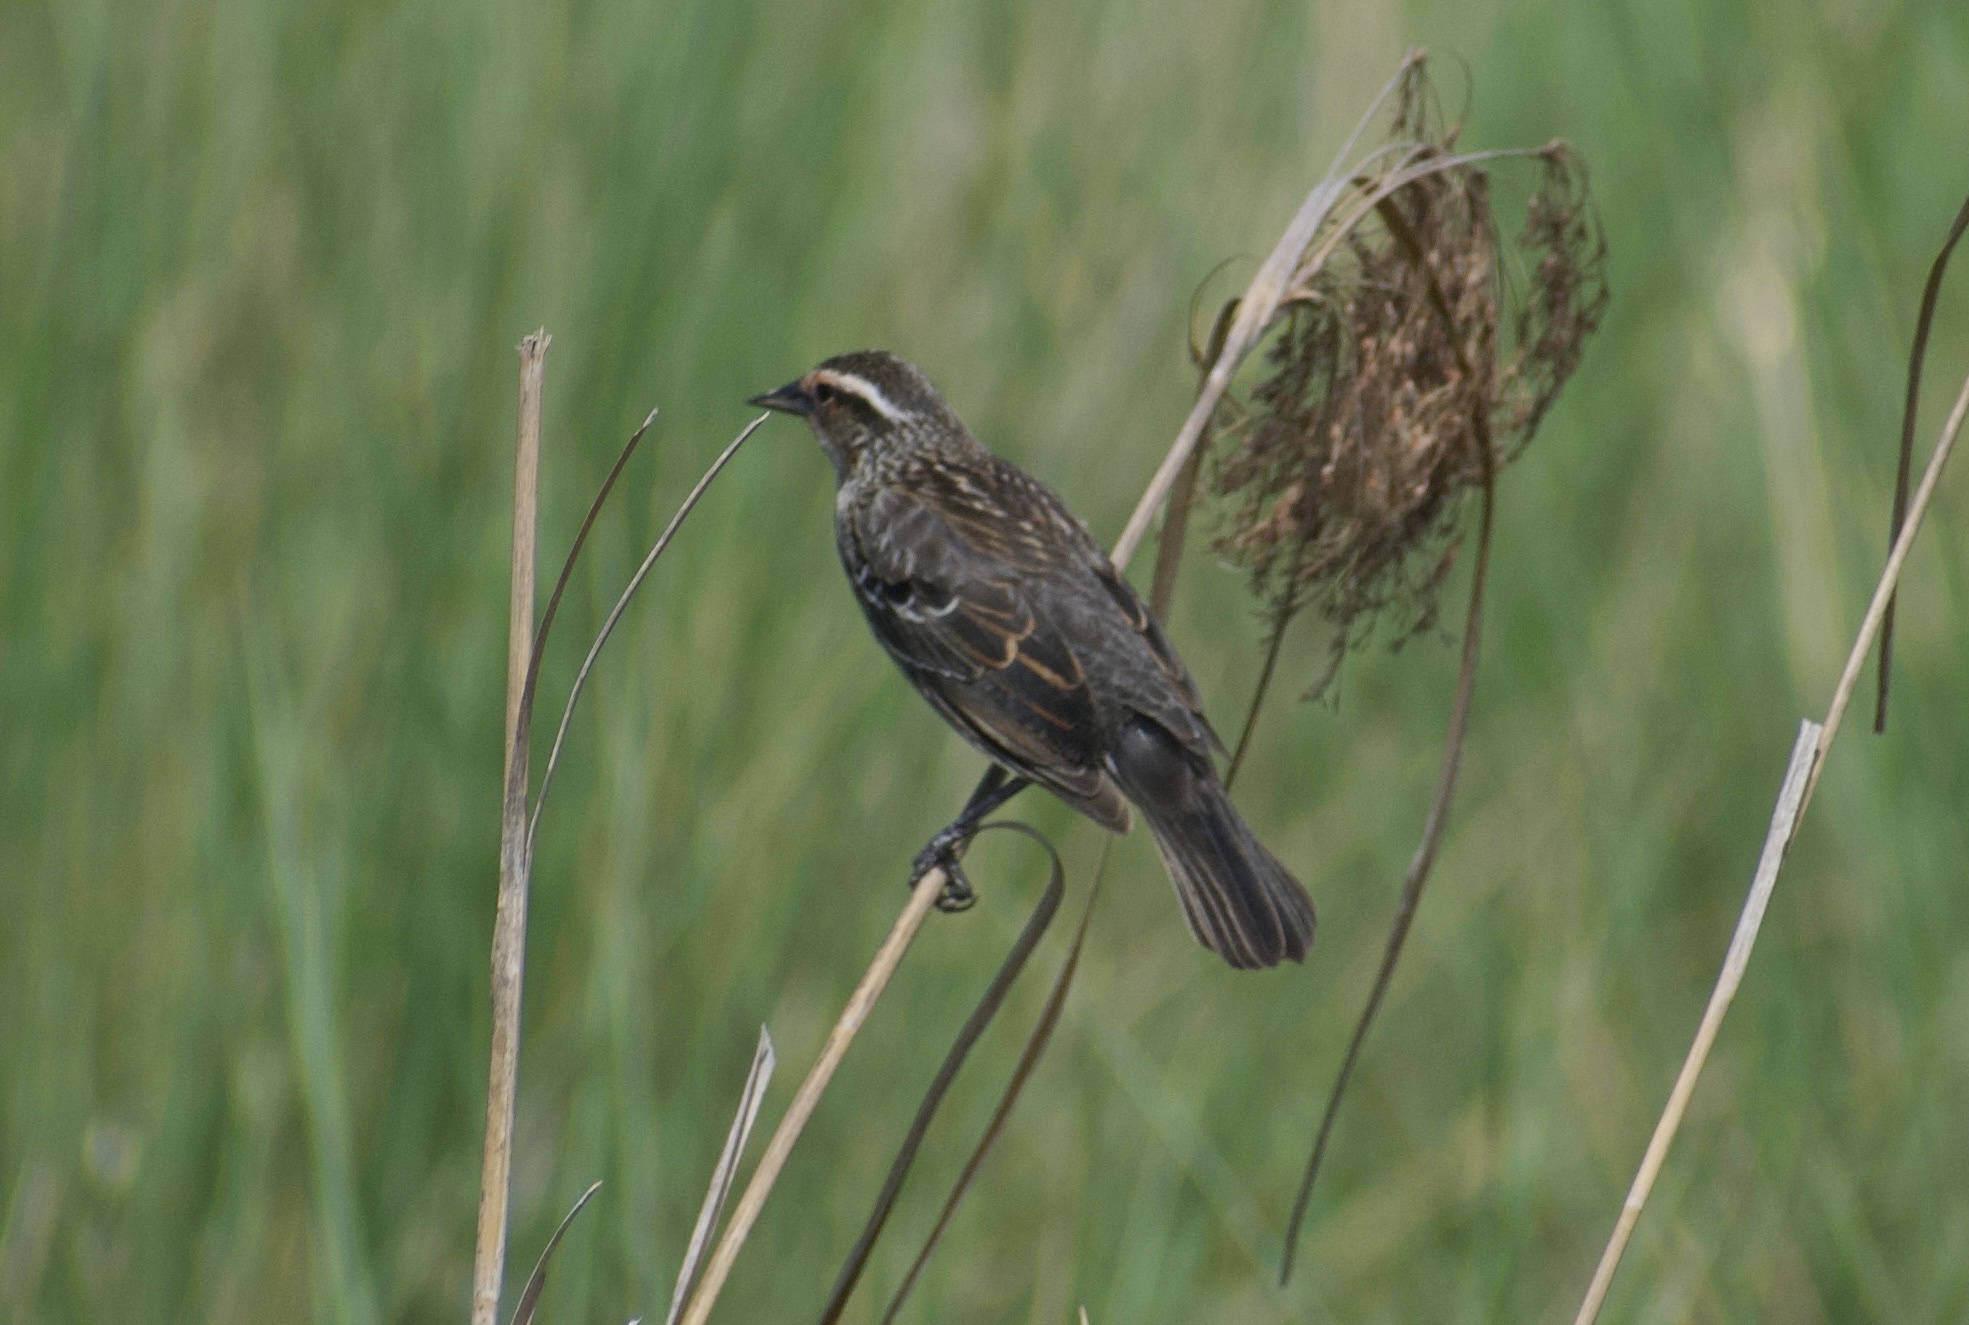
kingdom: Animalia
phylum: Chordata
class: Aves
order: Passeriformes
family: Icteridae
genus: Agelaius
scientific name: Agelaius phoeniceus
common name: Red-winged blackbird
